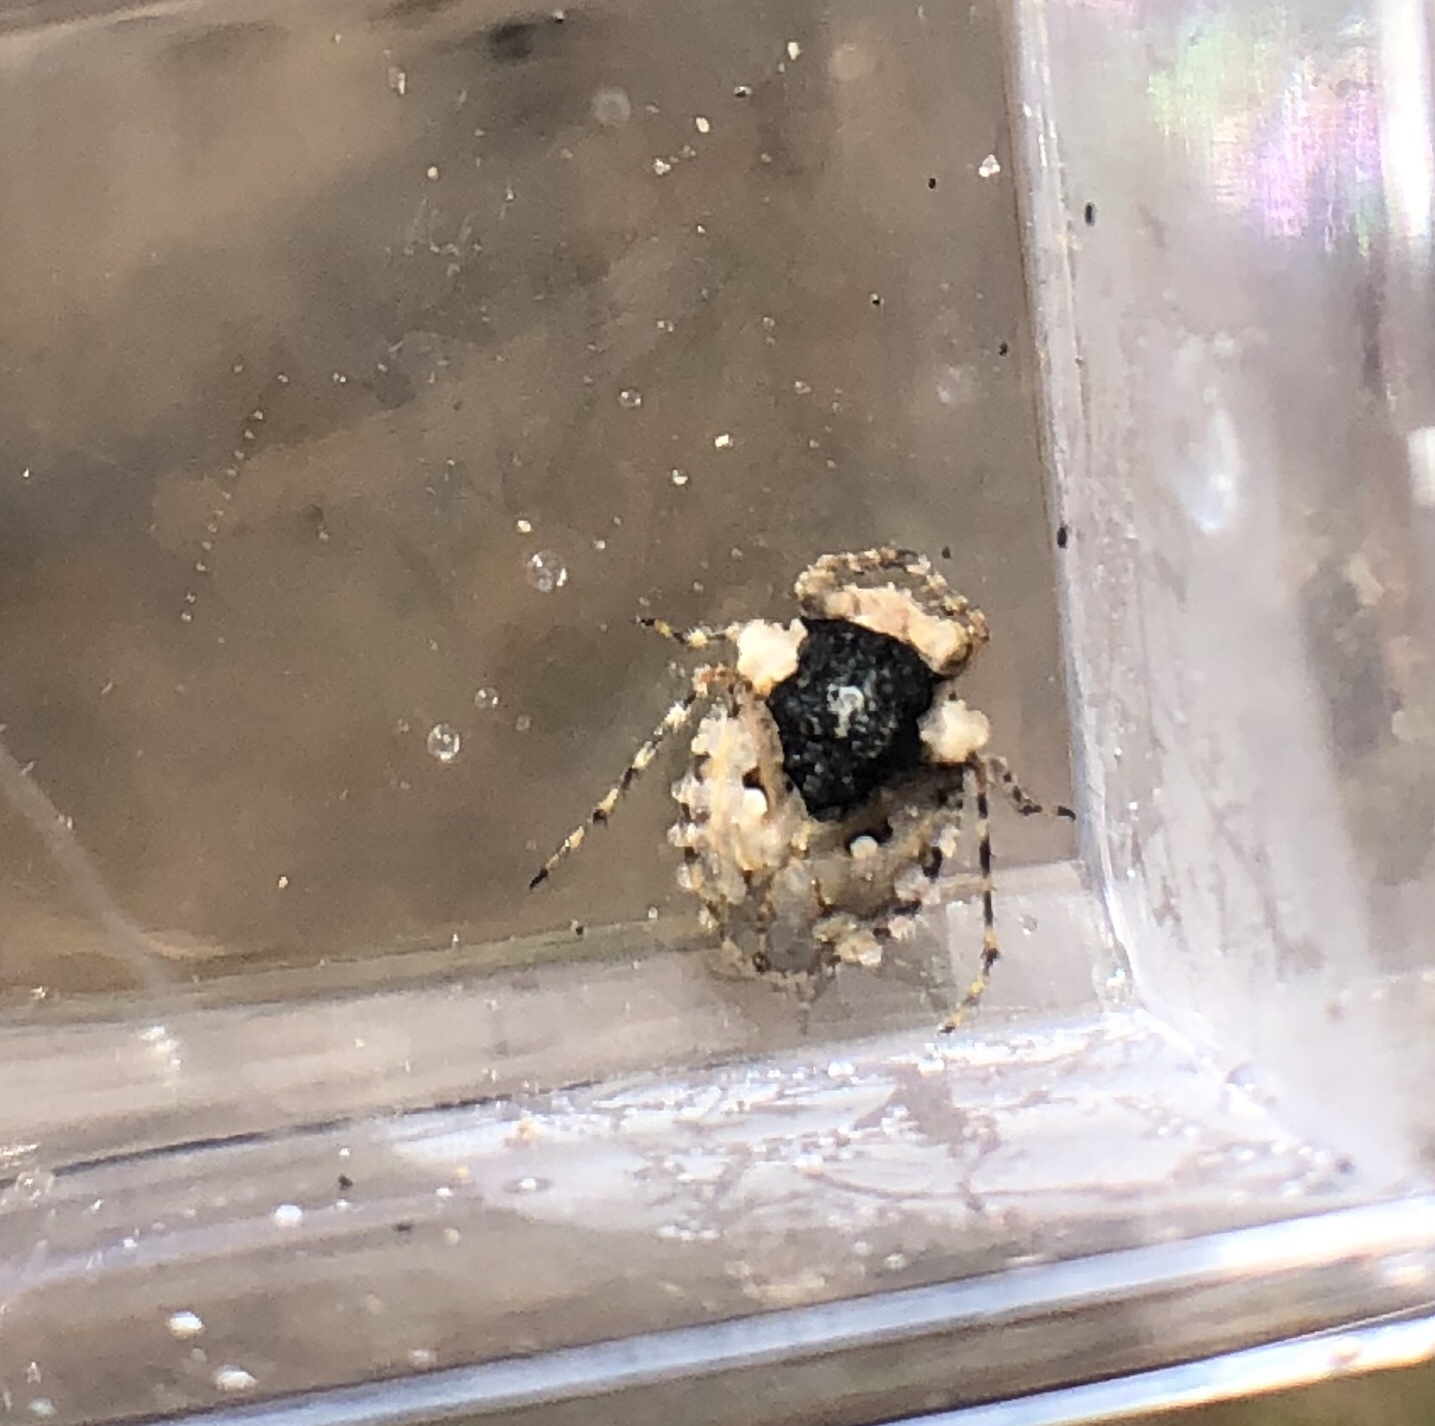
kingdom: Animalia
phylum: Arthropoda
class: Insecta
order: Hemiptera
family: Gelastocoridae
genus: Gelastocoris
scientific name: Gelastocoris oculatus
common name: Toad bug
